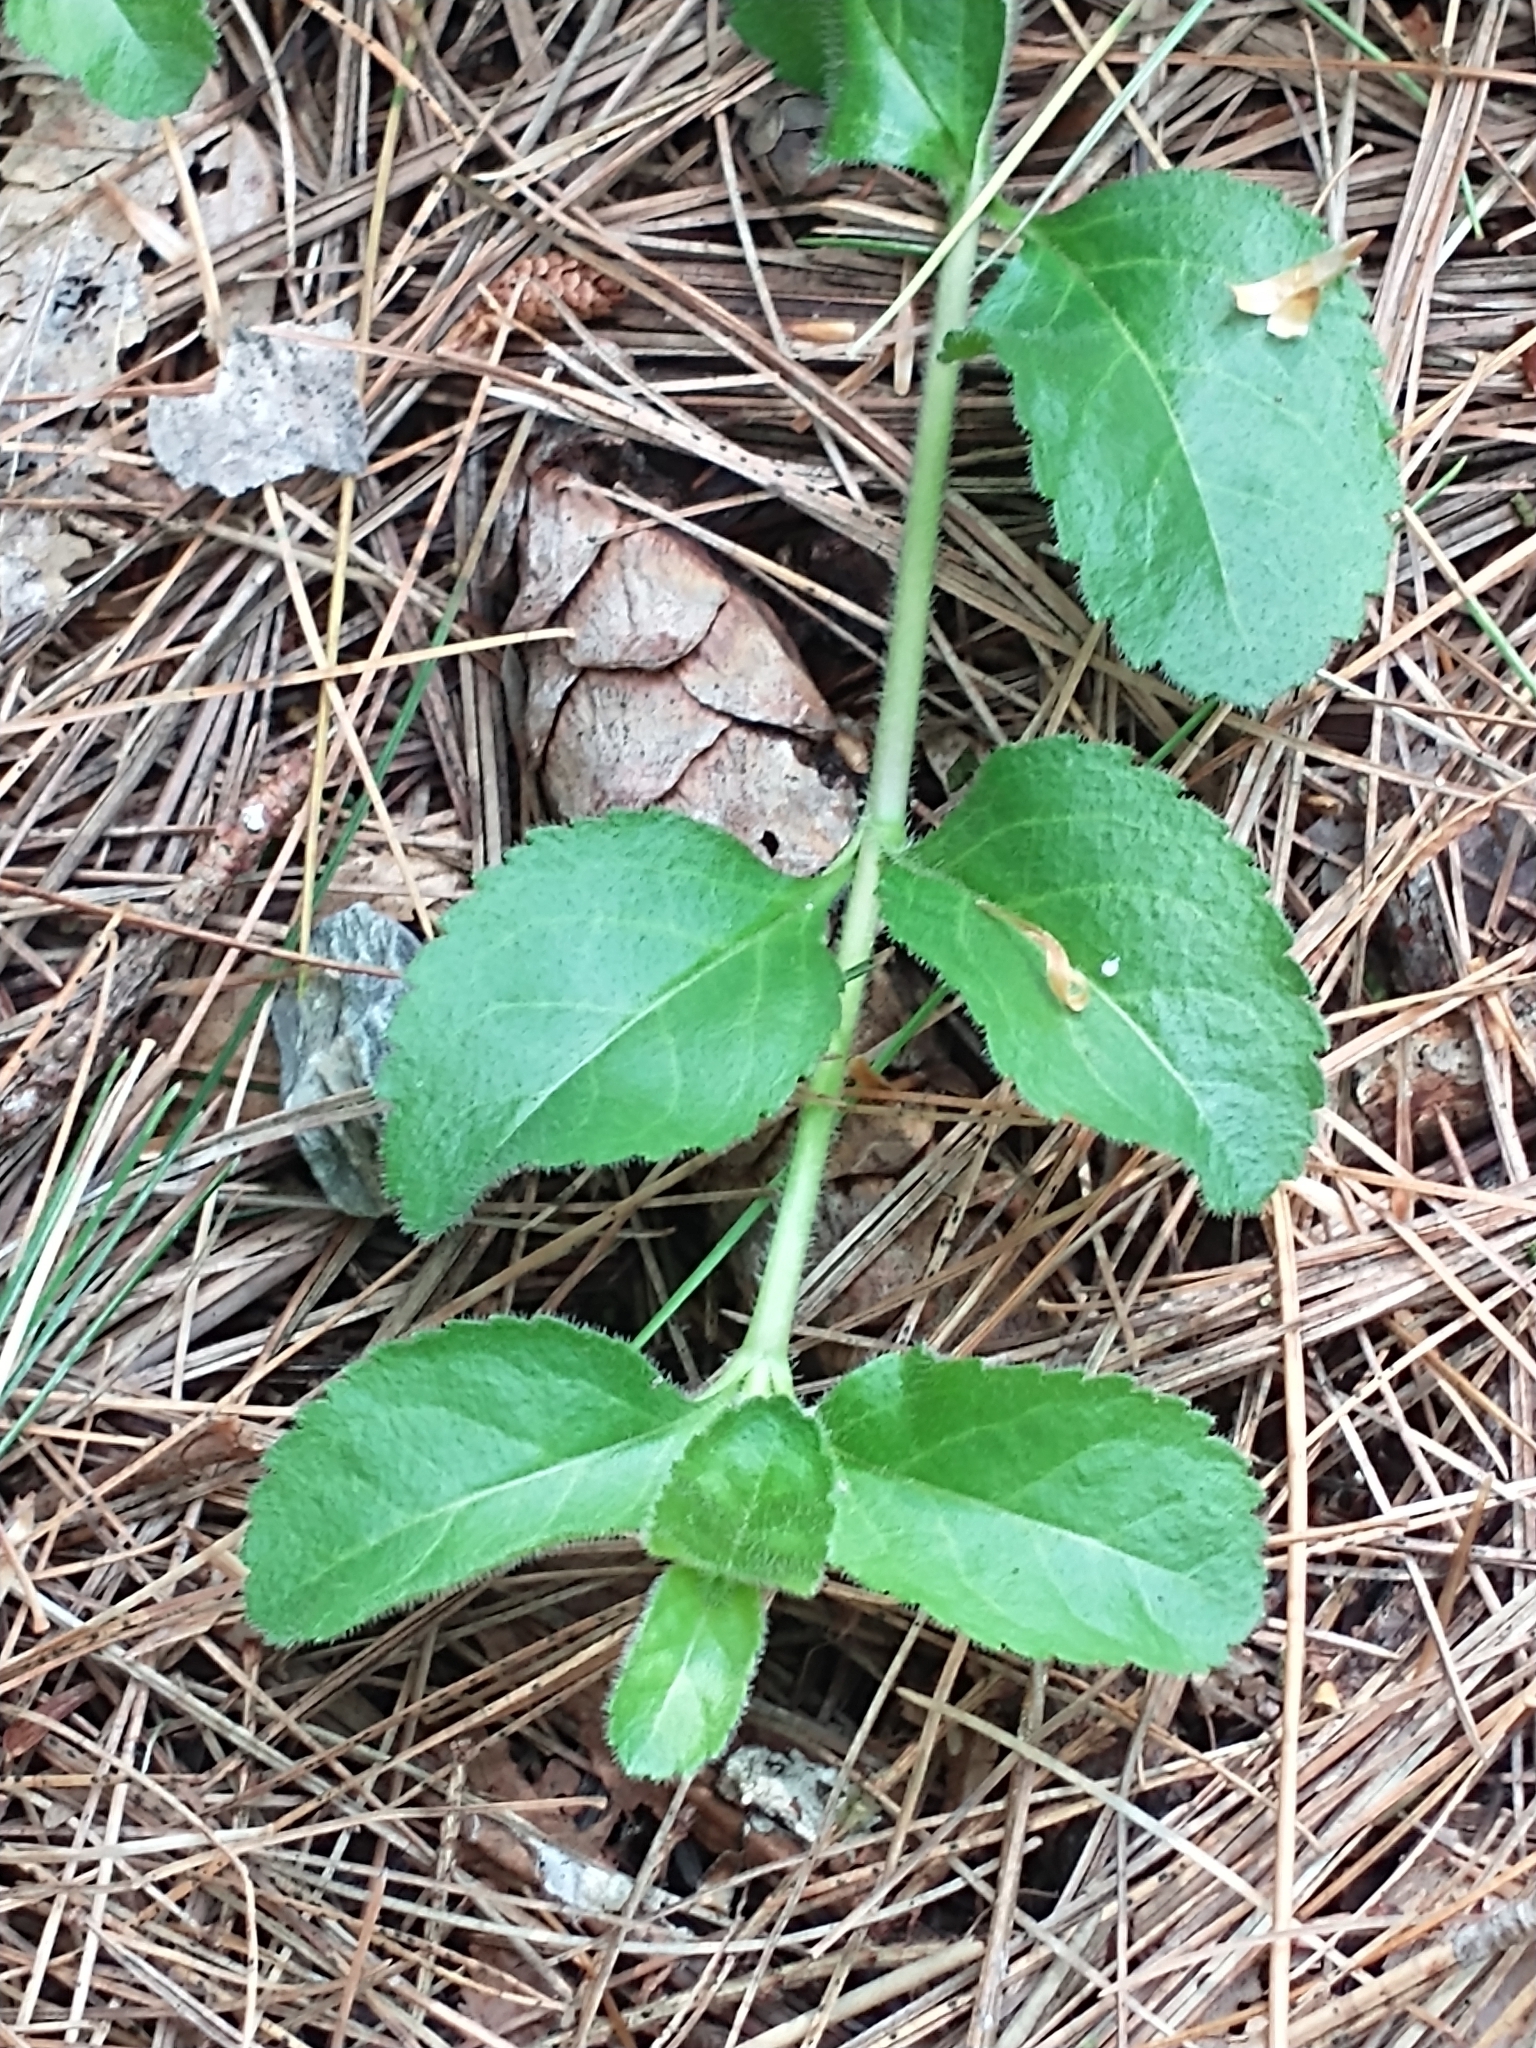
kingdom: Plantae
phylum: Tracheophyta
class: Magnoliopsida
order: Lamiales
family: Plantaginaceae
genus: Veronica
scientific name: Veronica officinalis
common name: Common speedwell
